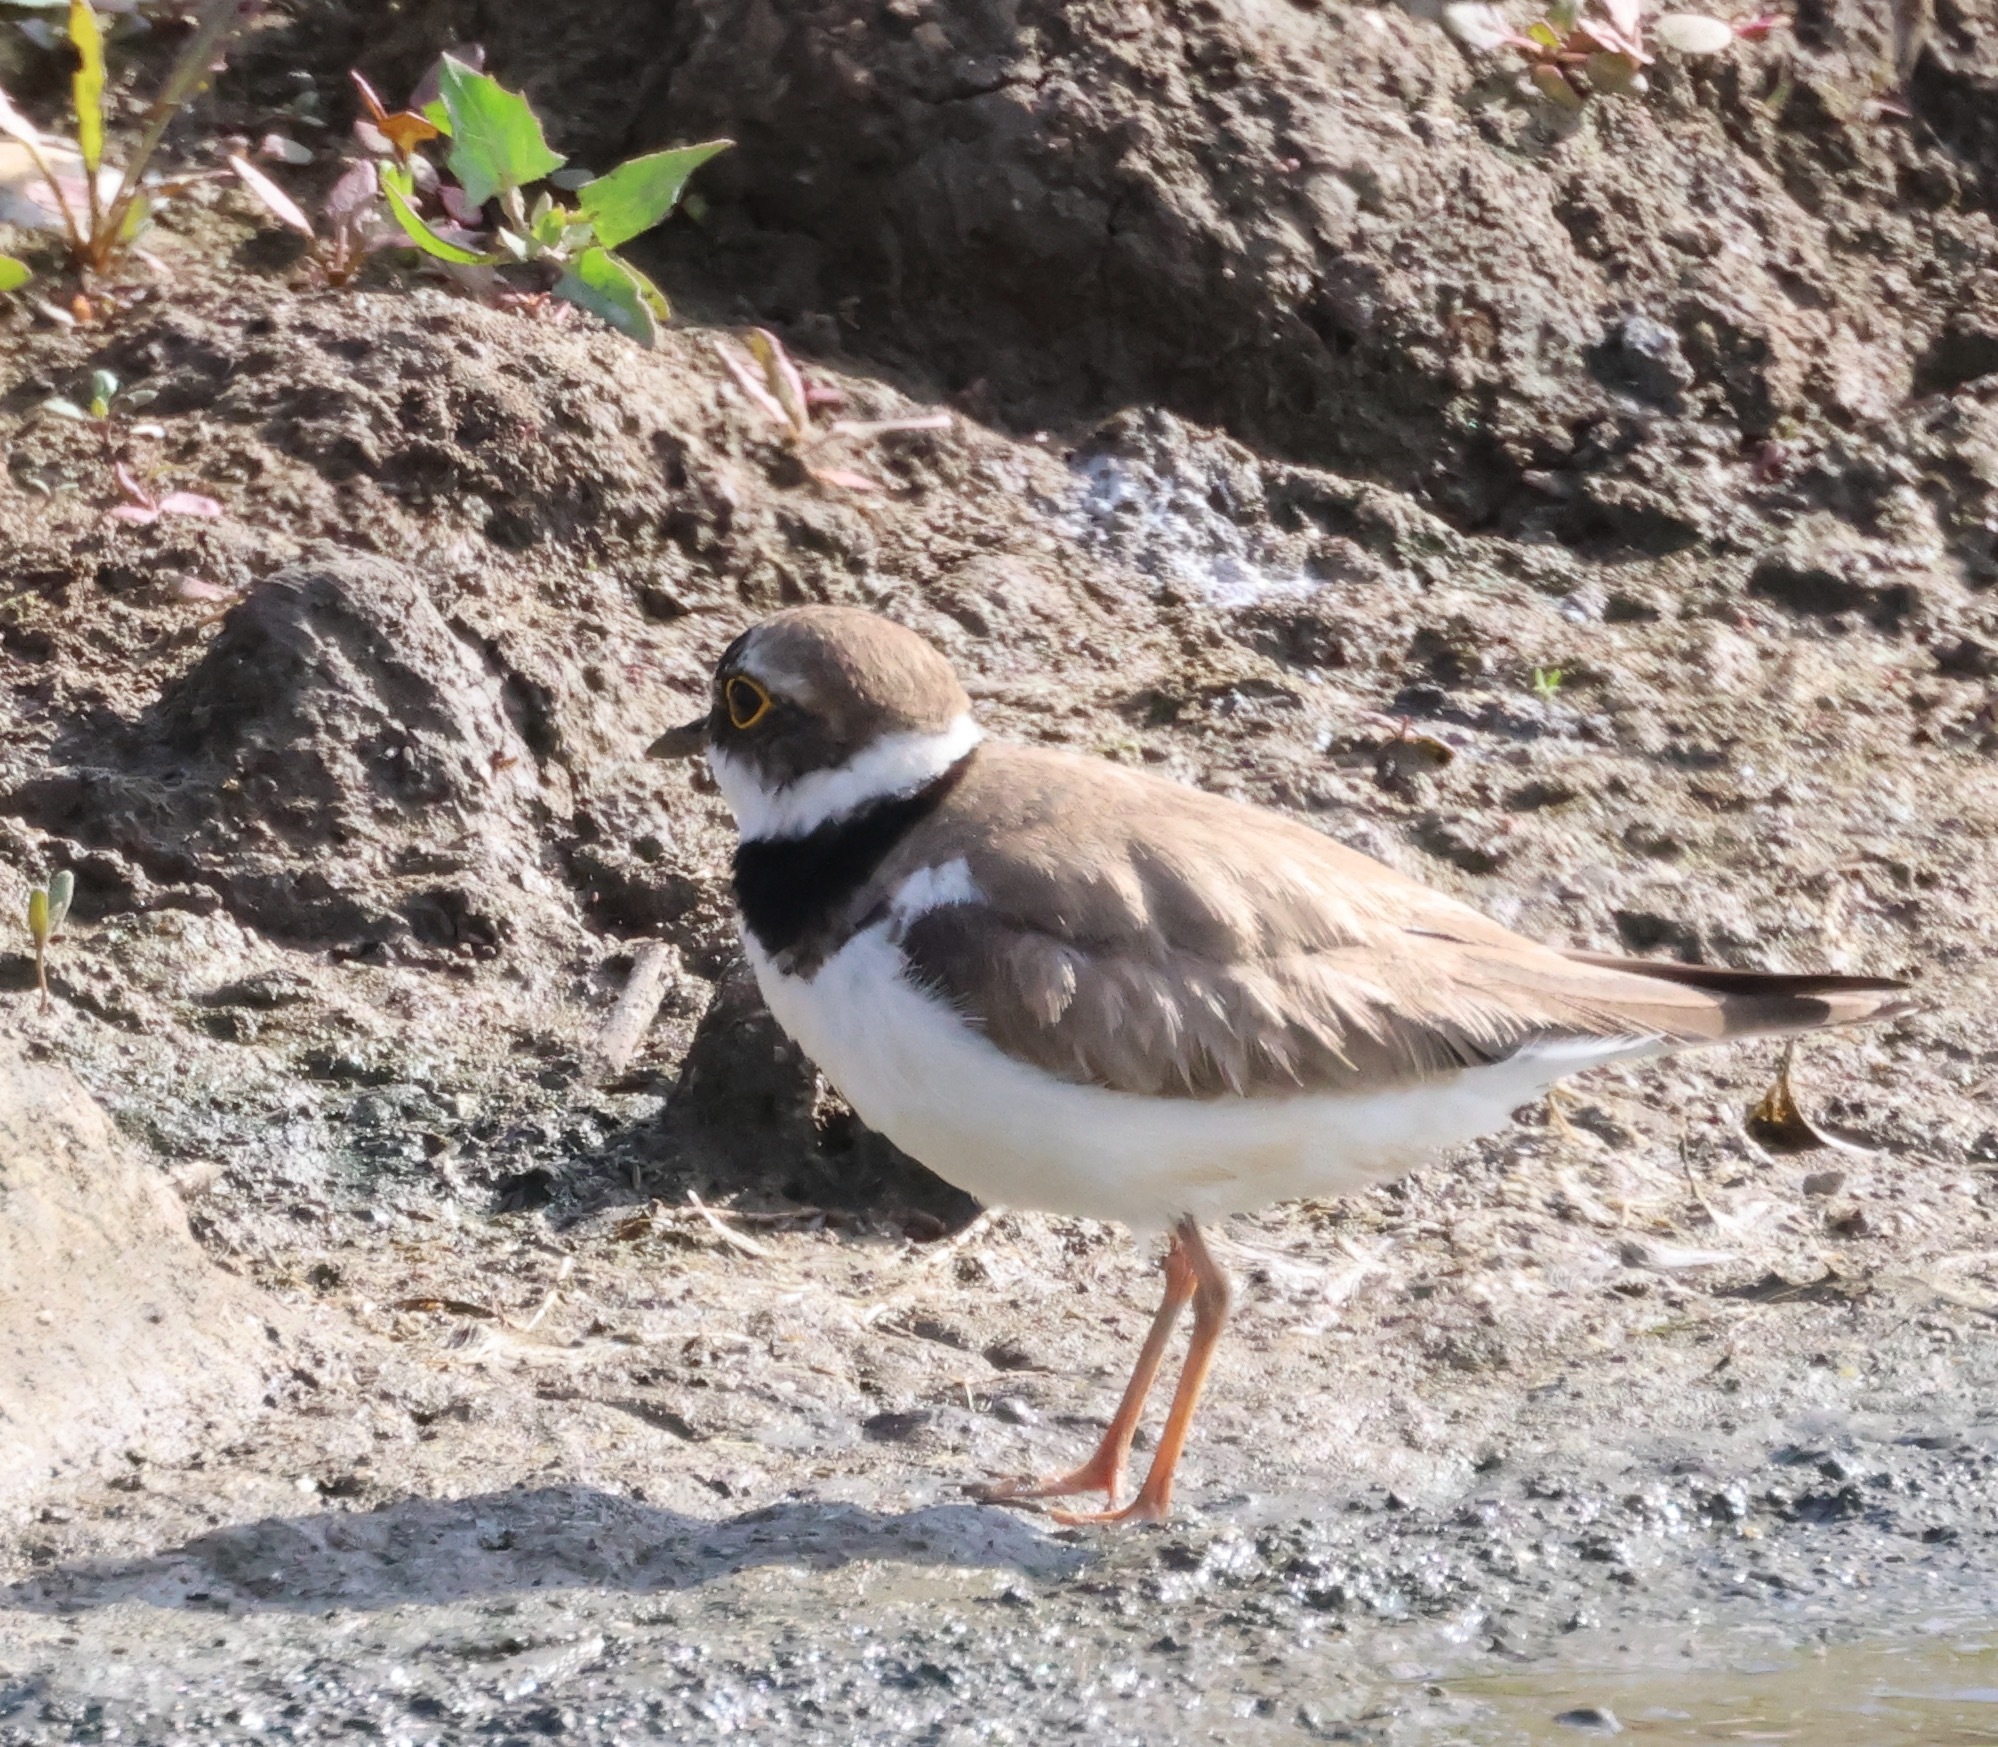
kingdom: Animalia
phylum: Chordata
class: Aves
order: Charadriiformes
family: Charadriidae
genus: Charadrius
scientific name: Charadrius dubius
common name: Little ringed plover
